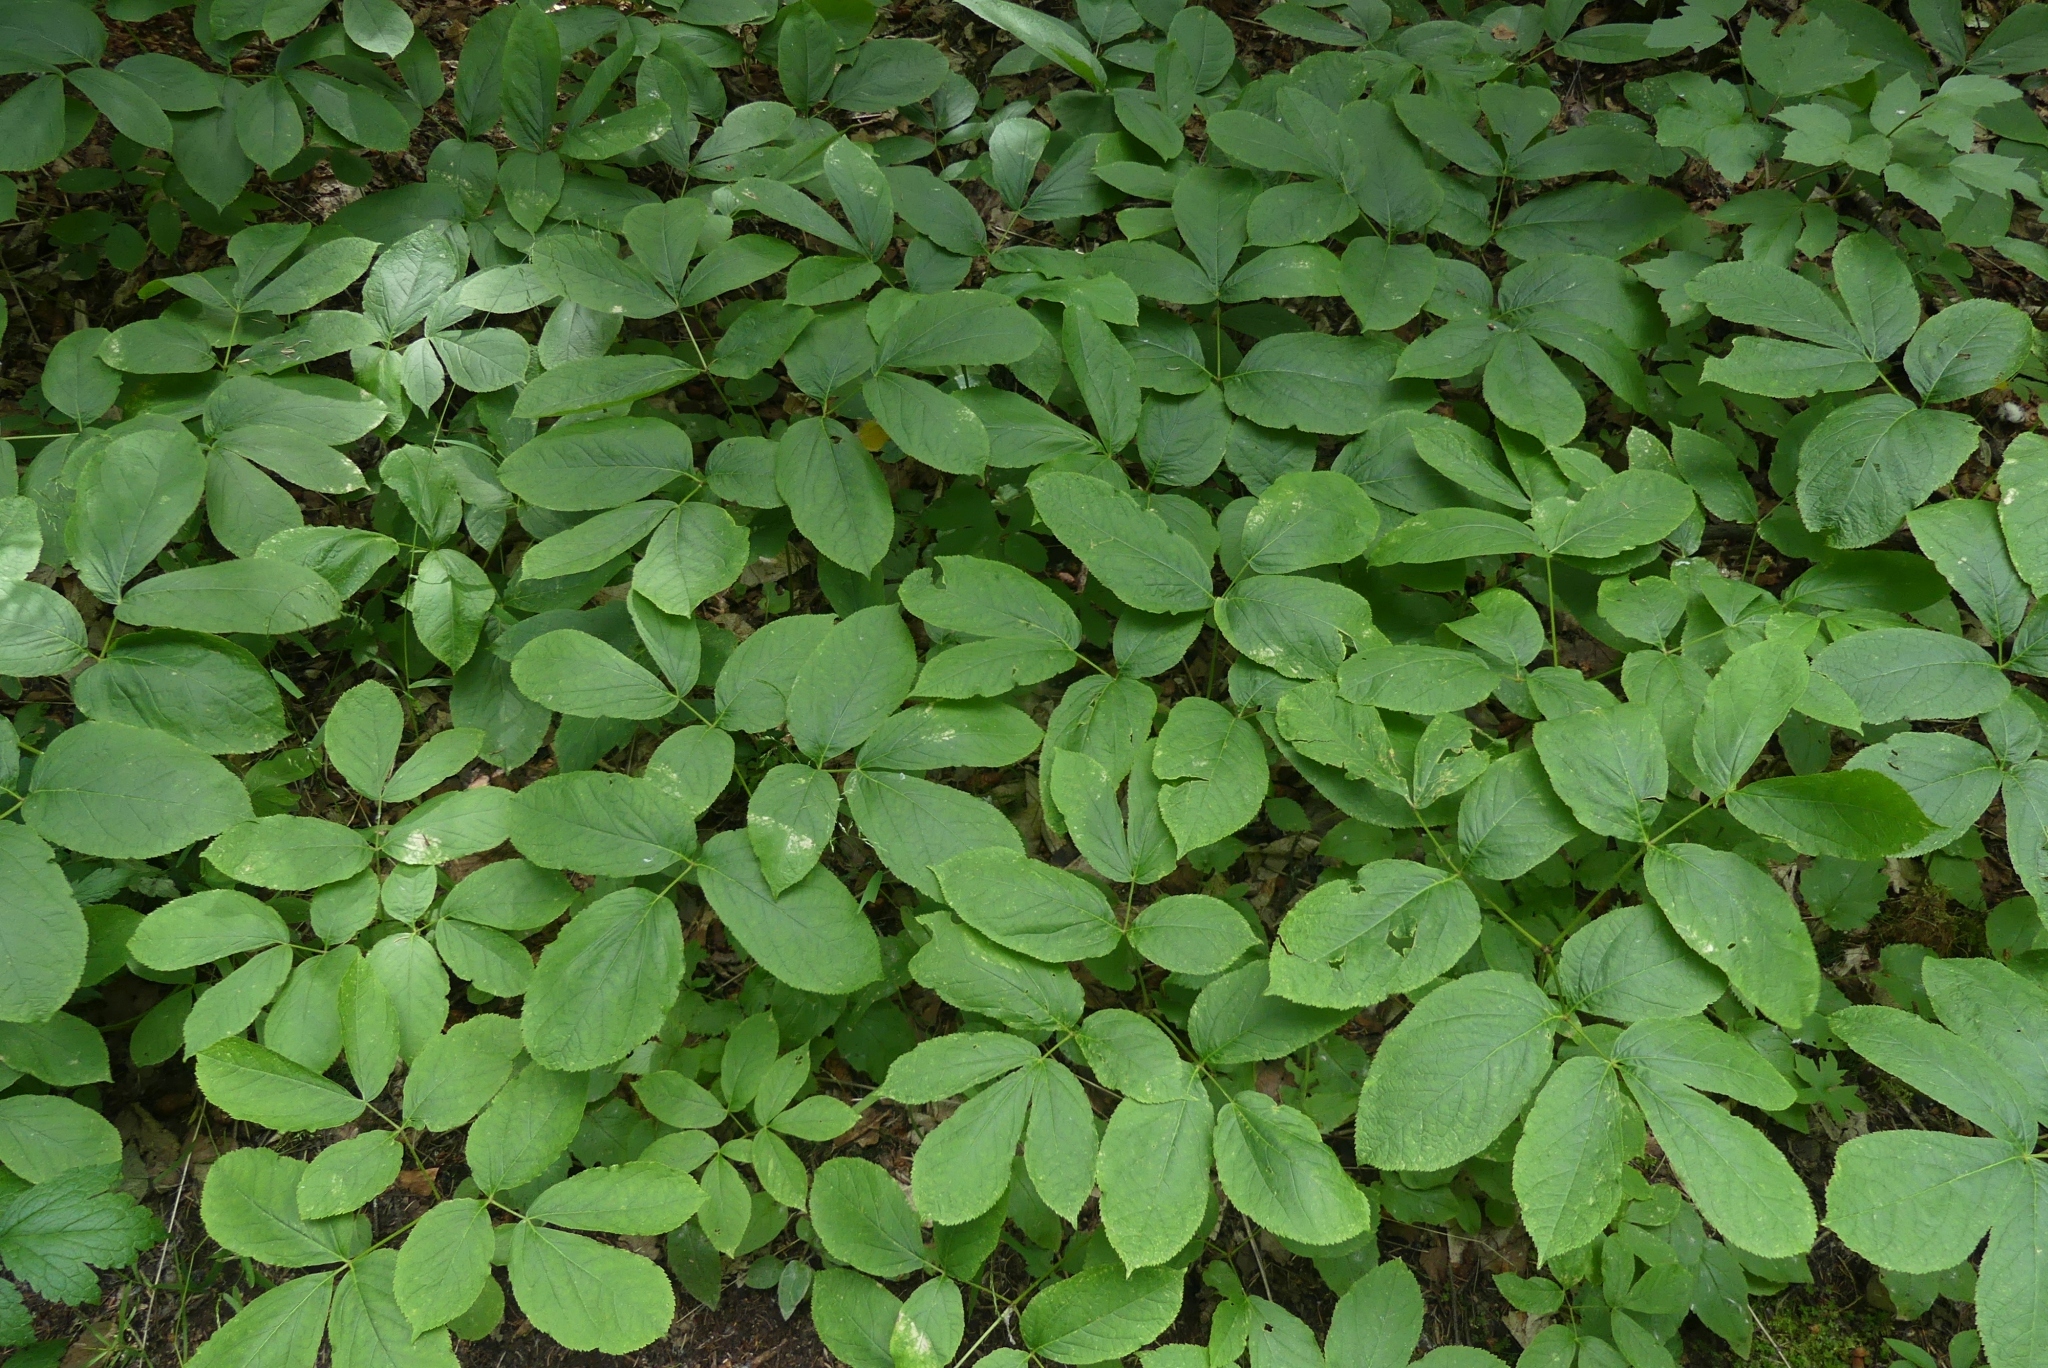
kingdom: Plantae
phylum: Tracheophyta
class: Magnoliopsida
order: Apiales
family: Araliaceae
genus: Aralia
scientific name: Aralia nudicaulis
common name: Wild sarsaparilla
